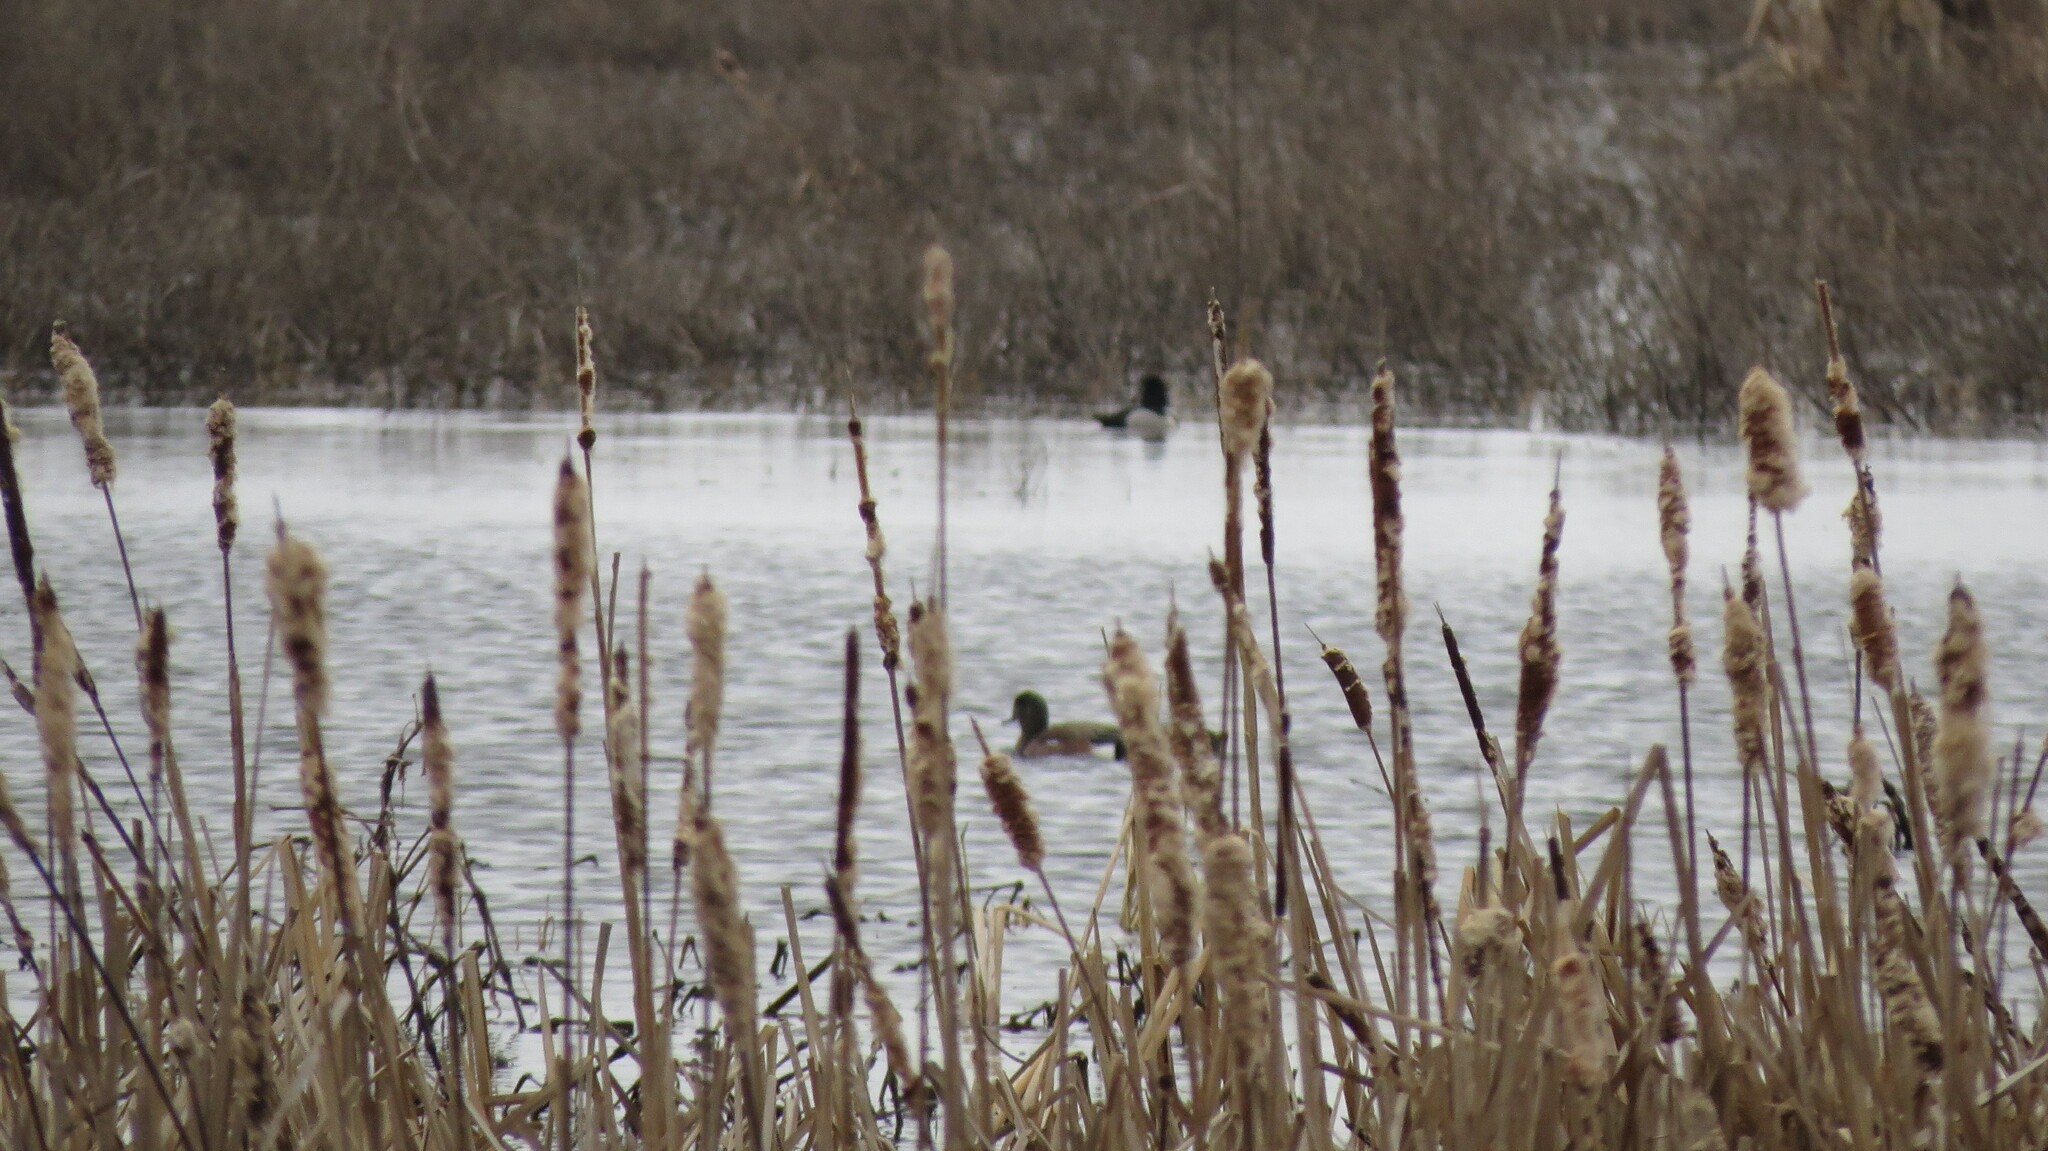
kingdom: Animalia
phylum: Chordata
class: Aves
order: Anseriformes
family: Anatidae
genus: Mareca
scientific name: Mareca americana
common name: American wigeon
